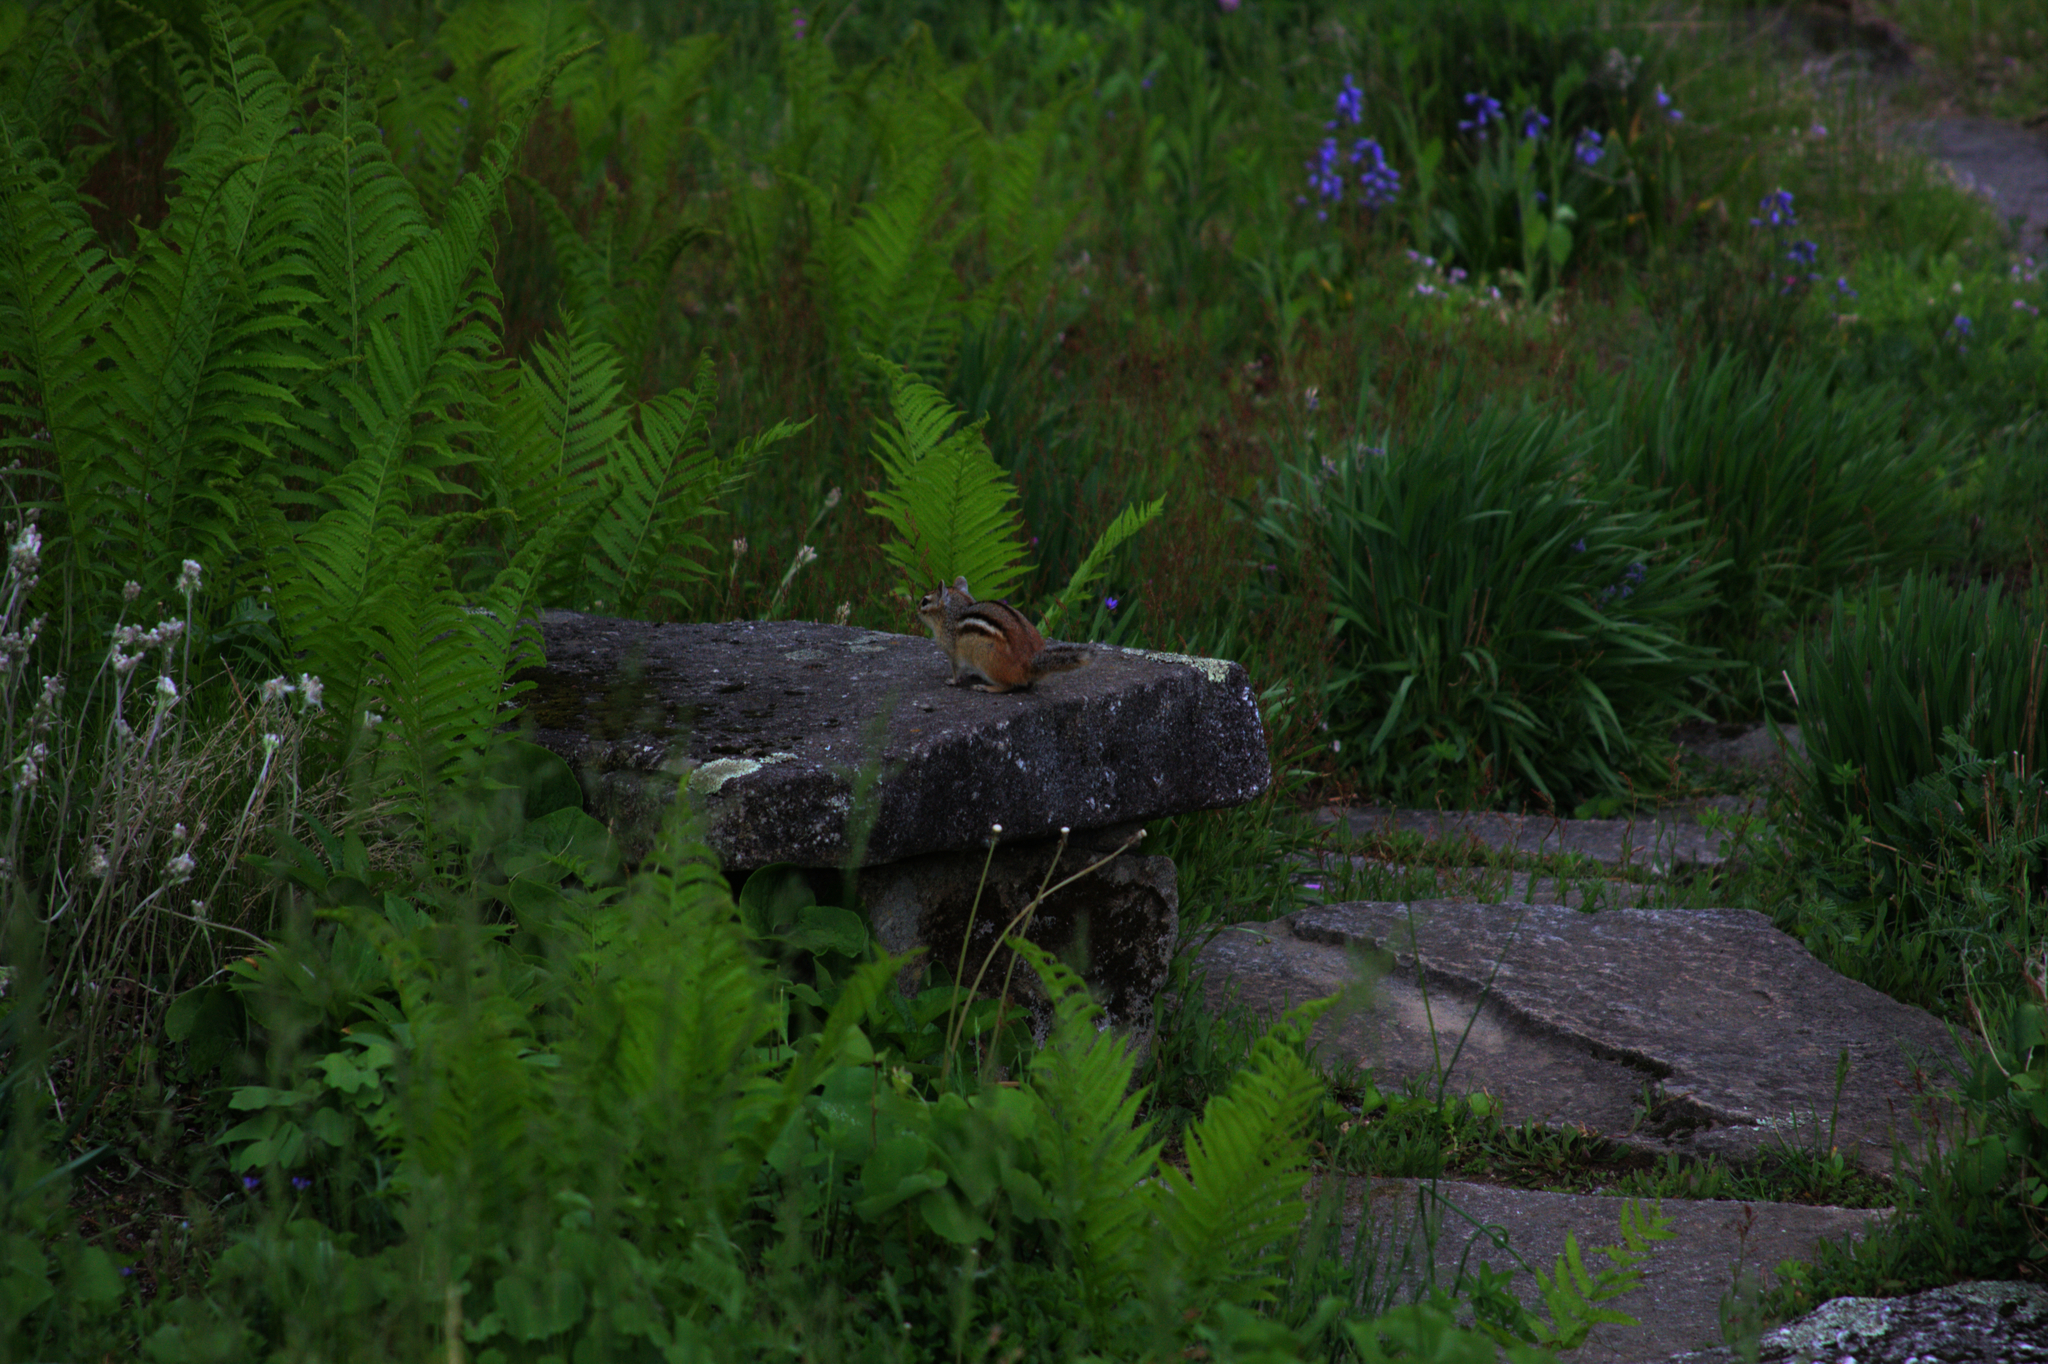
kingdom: Animalia
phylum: Chordata
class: Mammalia
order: Rodentia
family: Sciuridae
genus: Tamias
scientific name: Tamias striatus
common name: Eastern chipmunk
